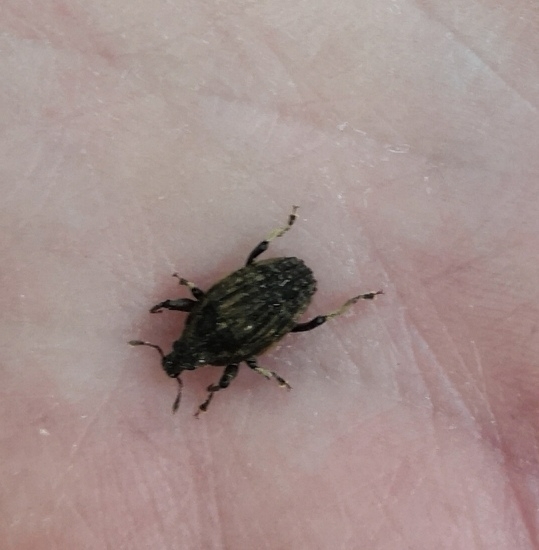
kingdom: Animalia
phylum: Arthropoda
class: Insecta
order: Coleoptera
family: Curculionidae
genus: Psepholax
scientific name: Psepholax sulcatus
